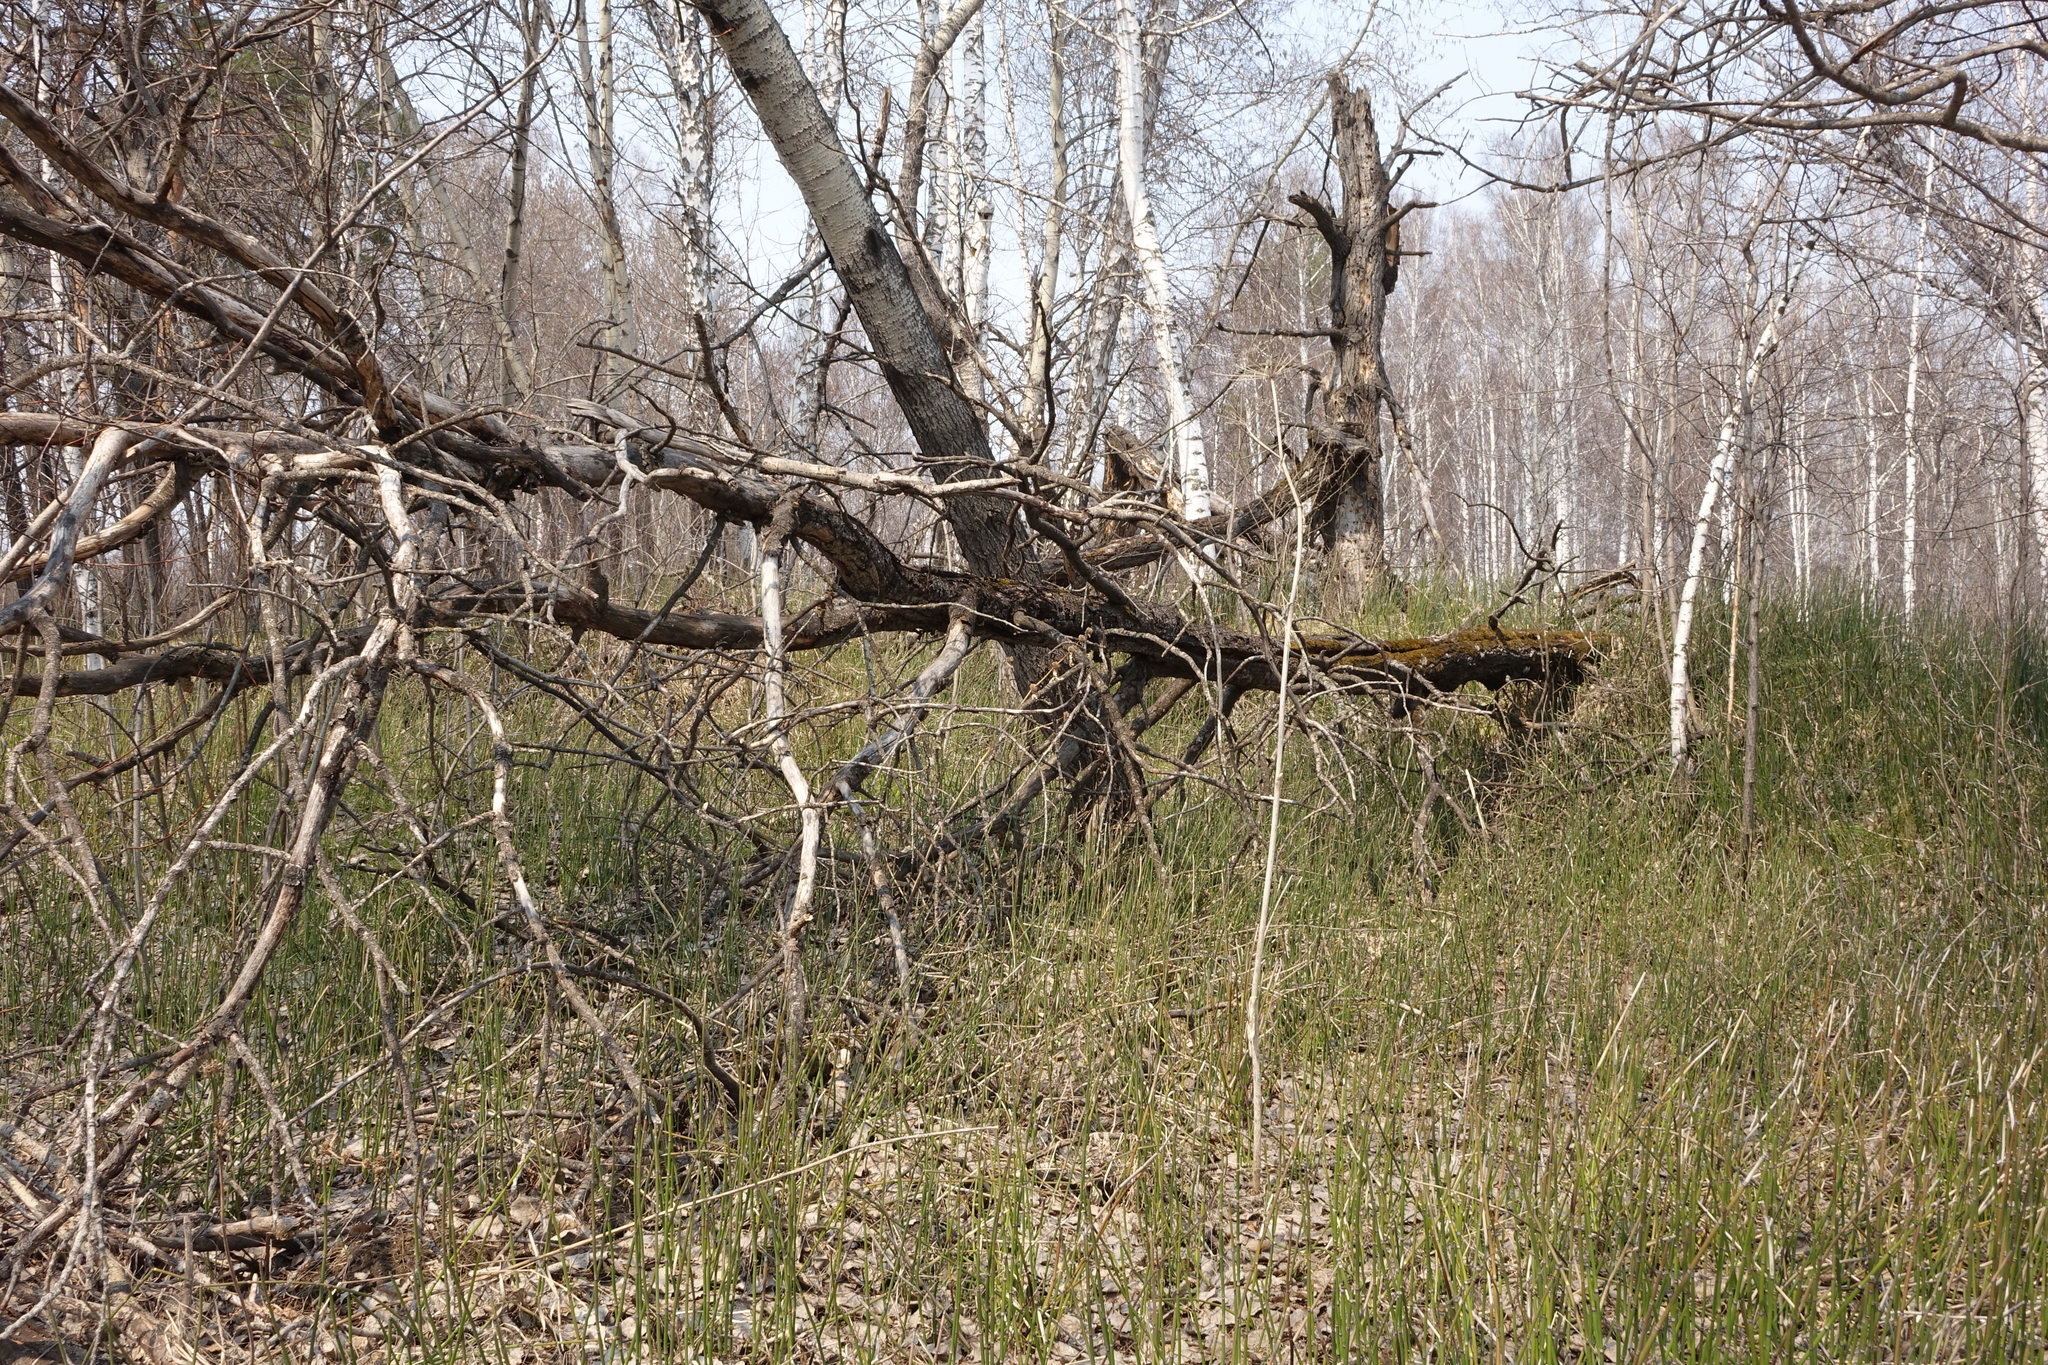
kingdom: Plantae
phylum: Tracheophyta
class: Polypodiopsida
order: Equisetales
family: Equisetaceae
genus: Equisetum
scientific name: Equisetum hyemale
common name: Rough horsetail
